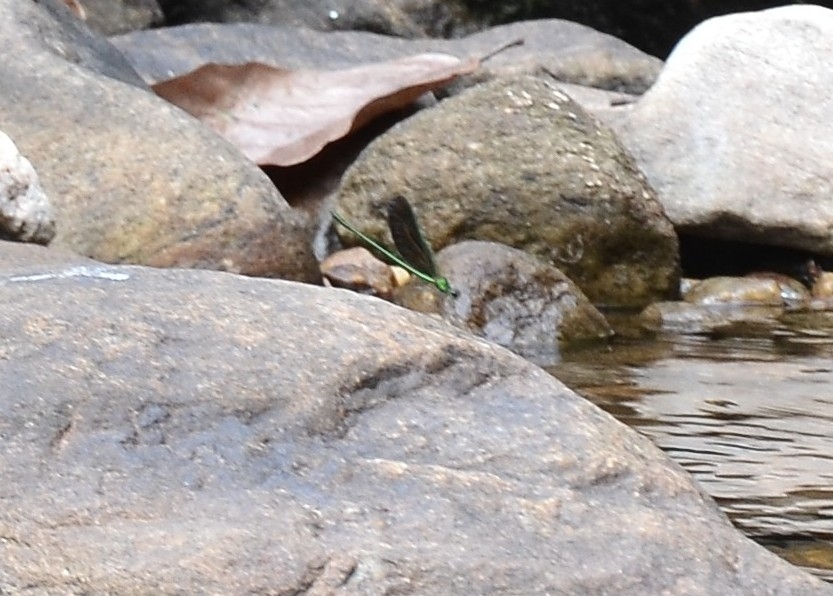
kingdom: Animalia
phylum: Arthropoda
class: Insecta
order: Odonata
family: Calopterygidae
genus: Neurobasis
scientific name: Neurobasis chinensis
